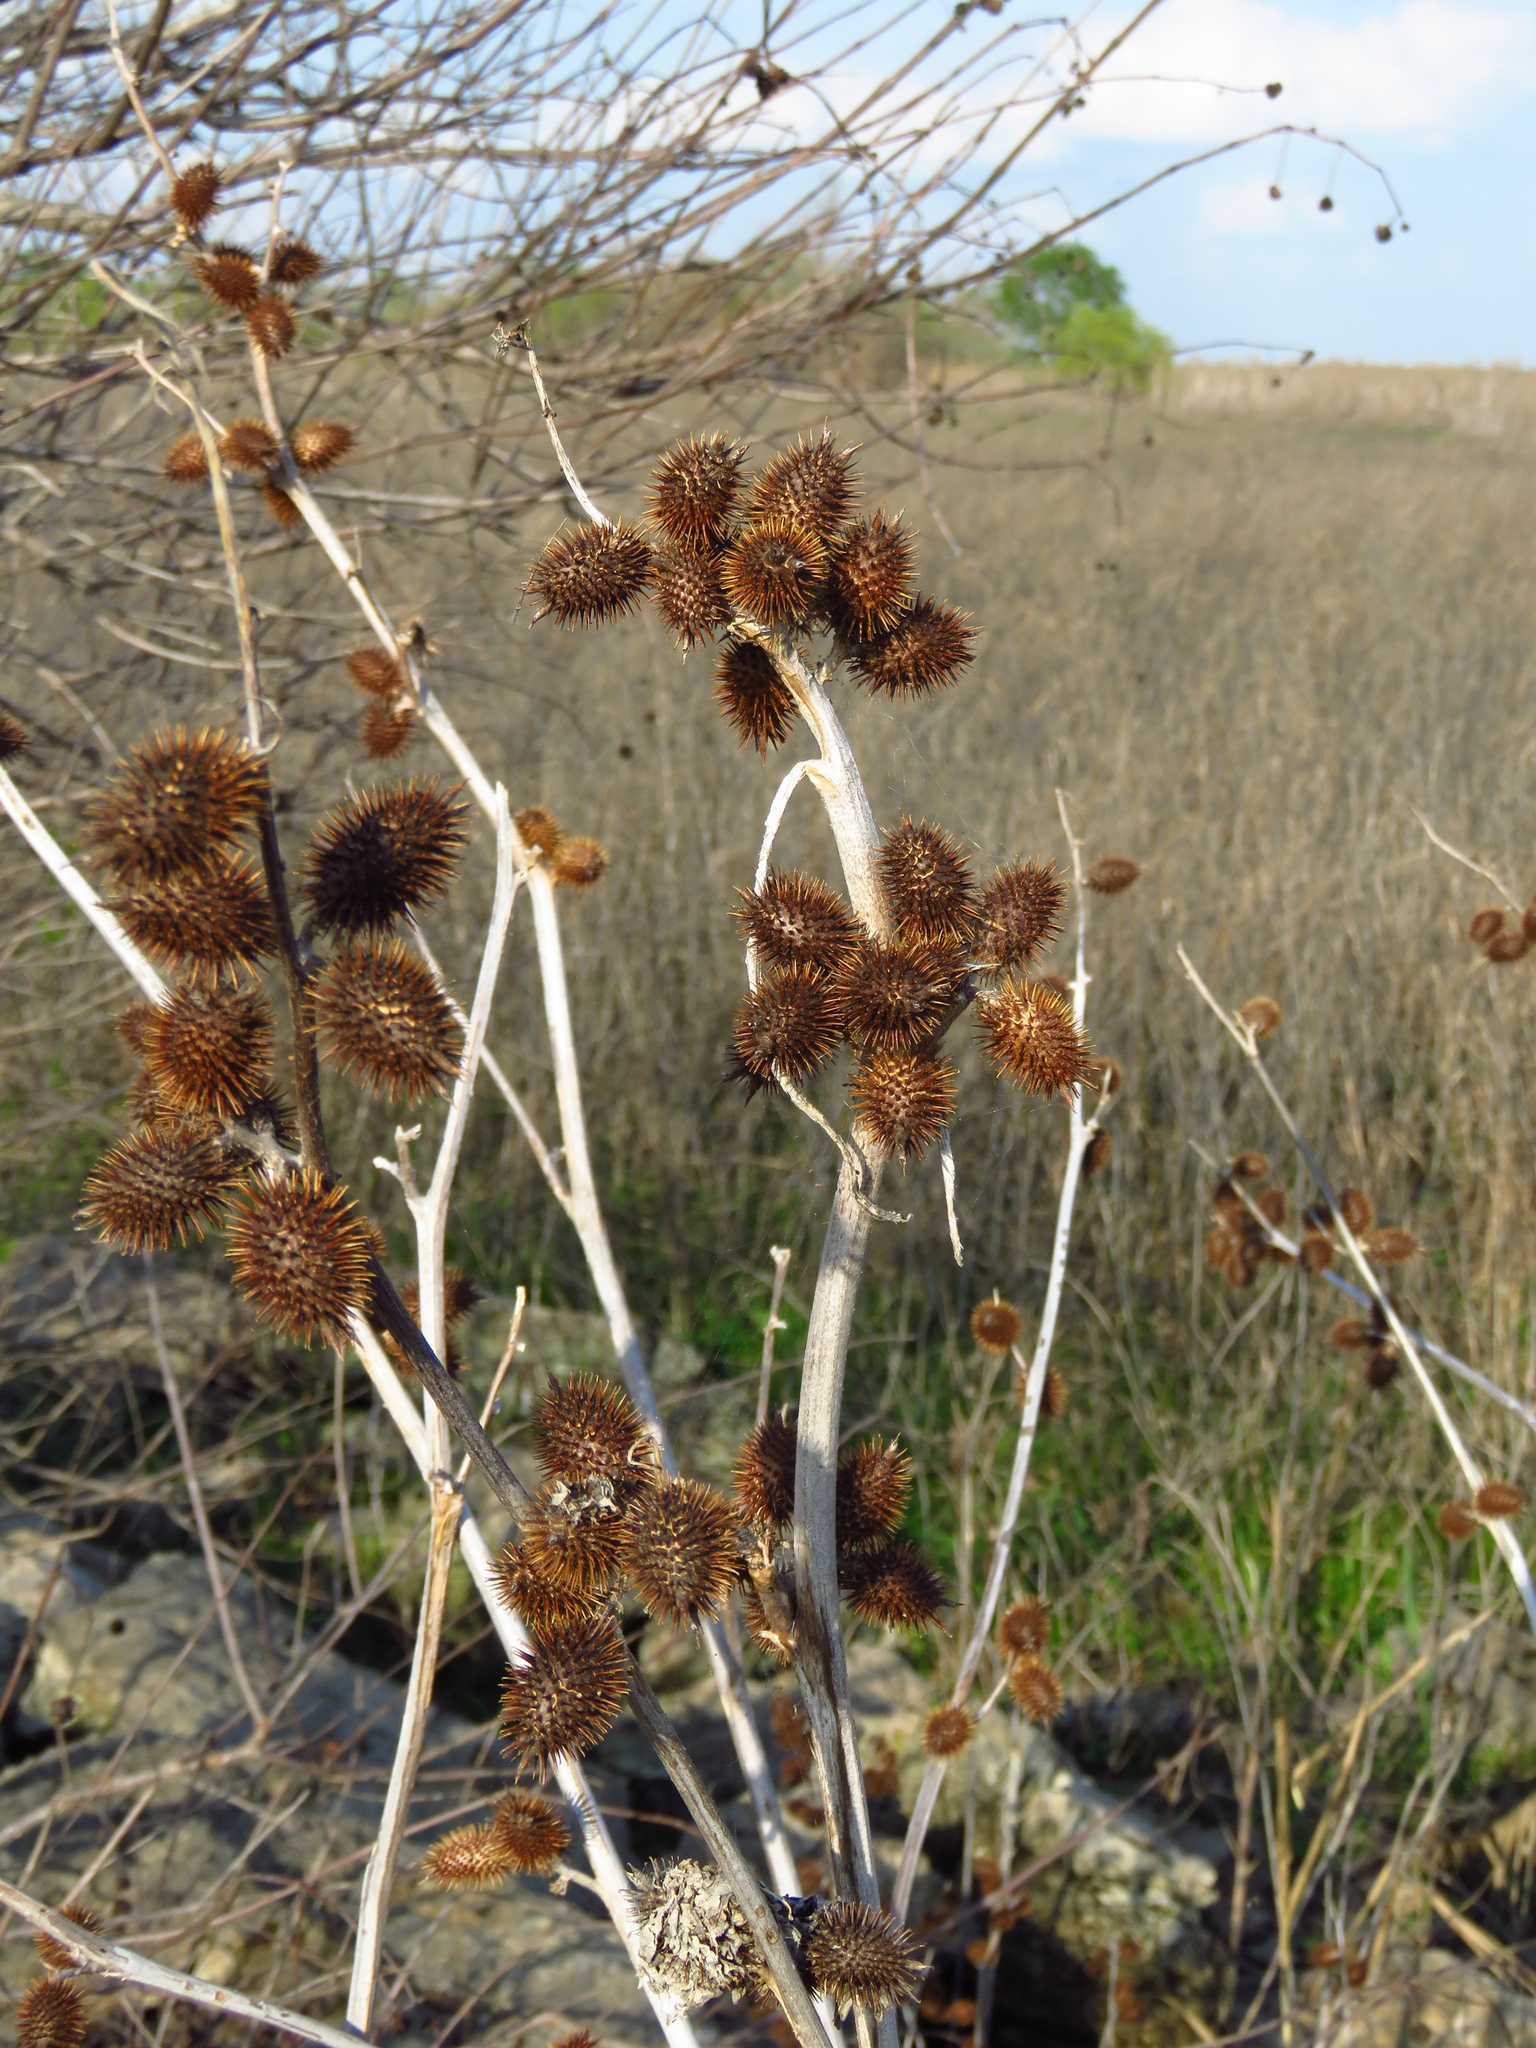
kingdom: Plantae
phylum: Tracheophyta
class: Magnoliopsida
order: Asterales
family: Asteraceae
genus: Xanthium
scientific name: Xanthium strumarium
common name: Rough cocklebur
